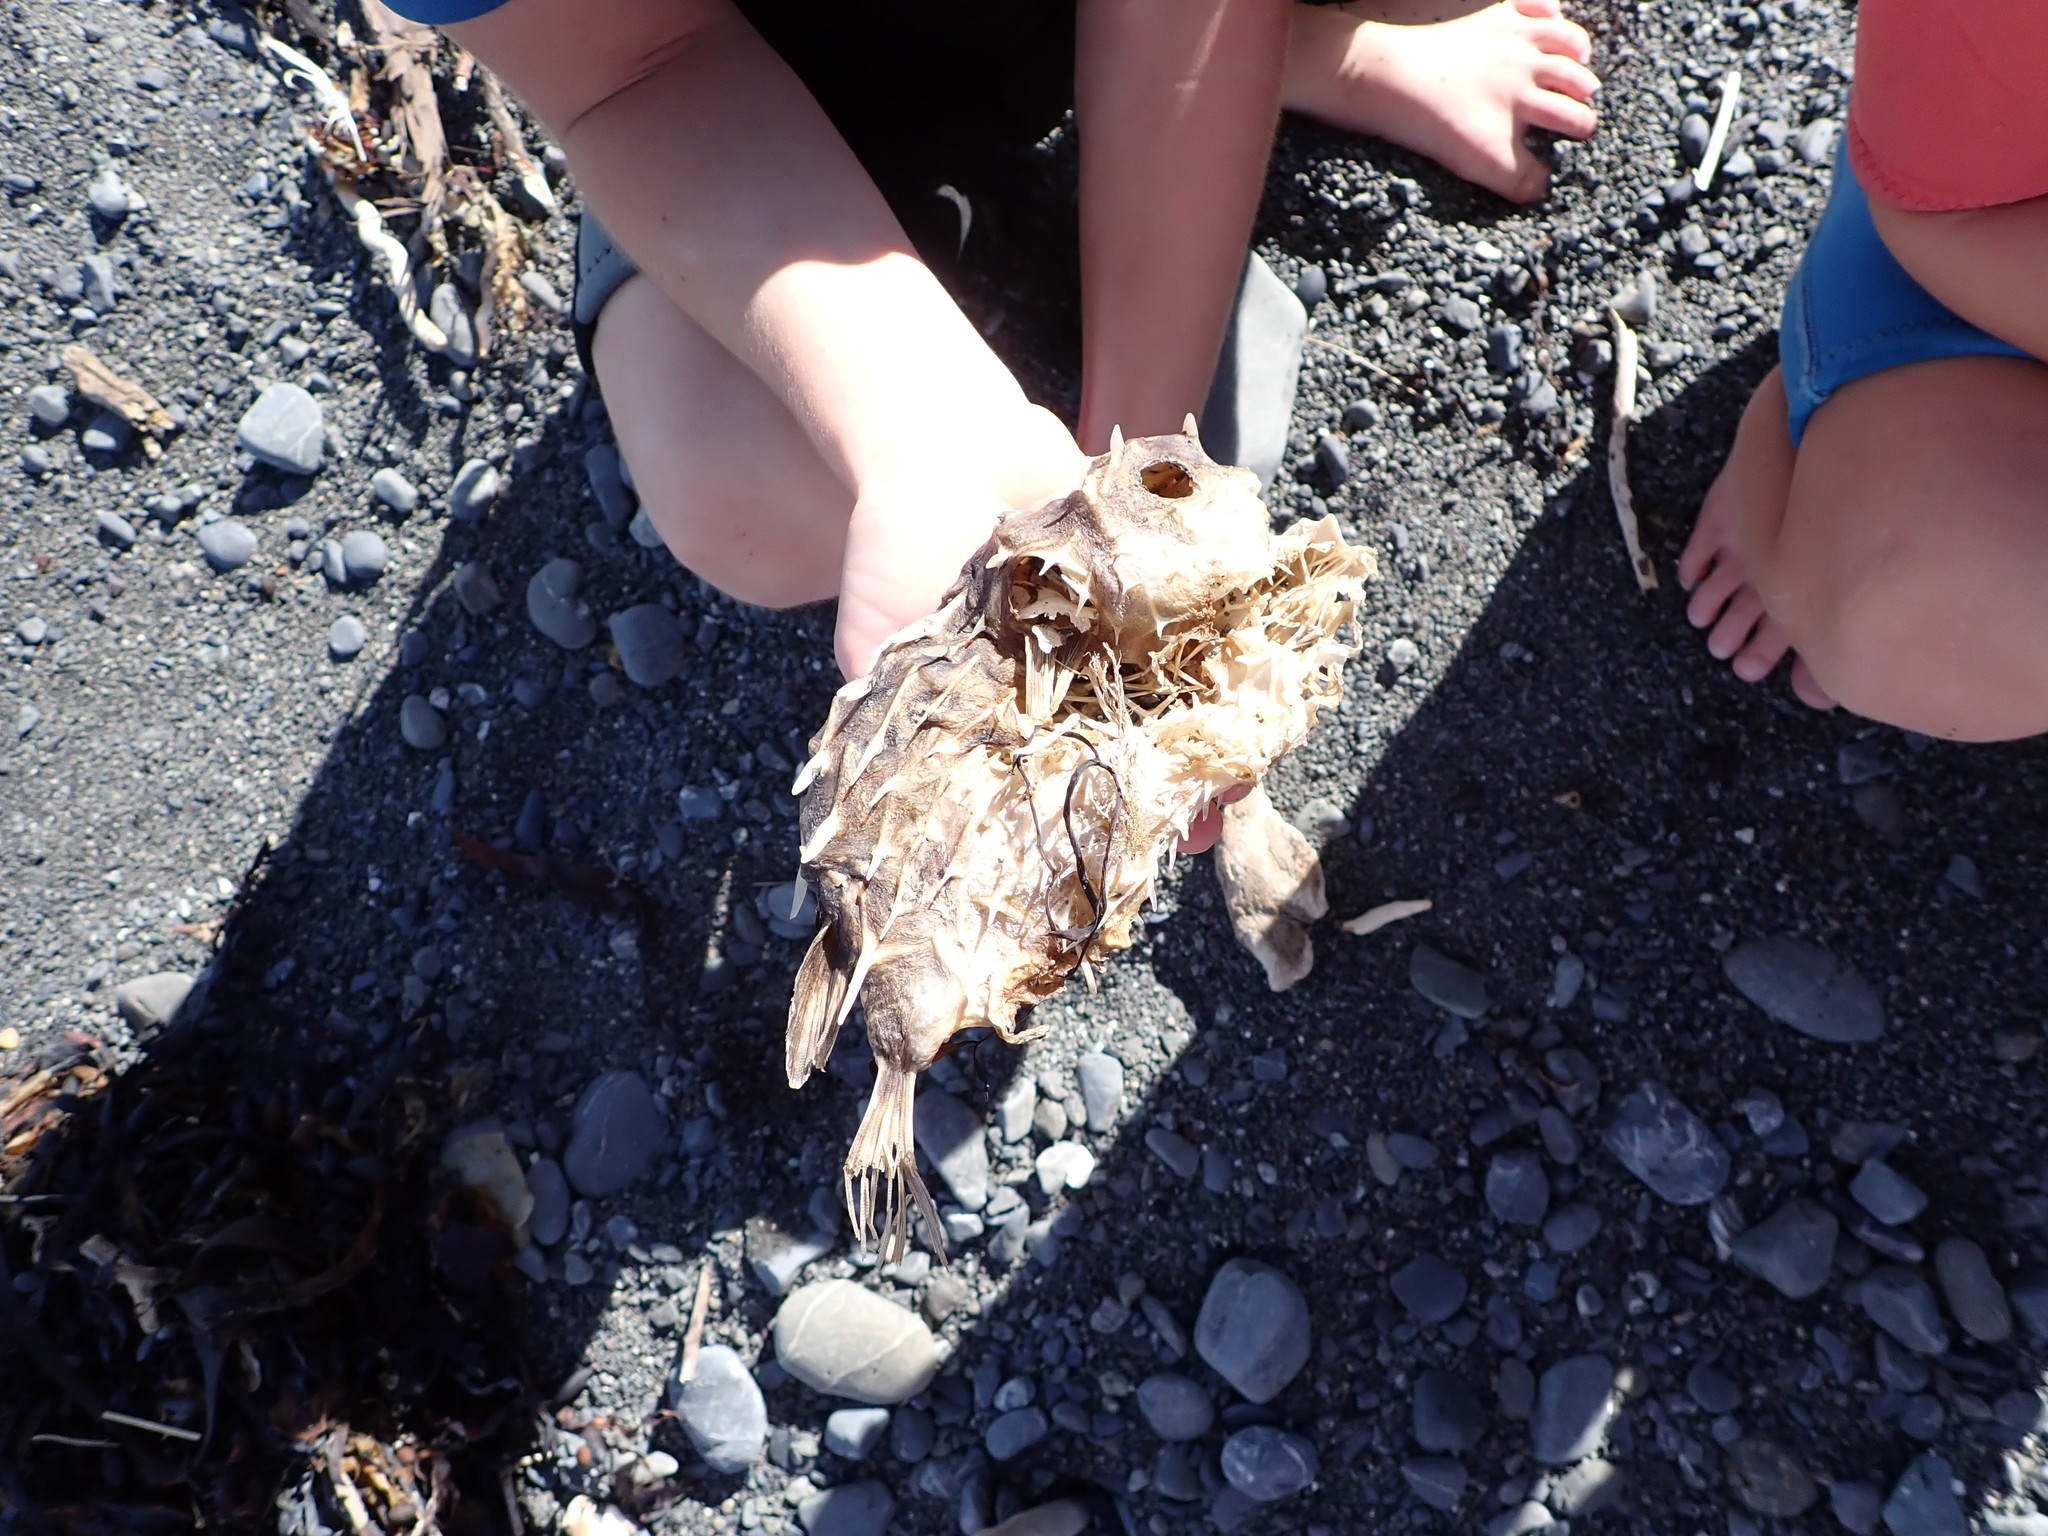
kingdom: Animalia
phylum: Chordata
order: Tetraodontiformes
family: Diodontidae
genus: Allomycterus
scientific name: Allomycterus pilatus
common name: No common name
